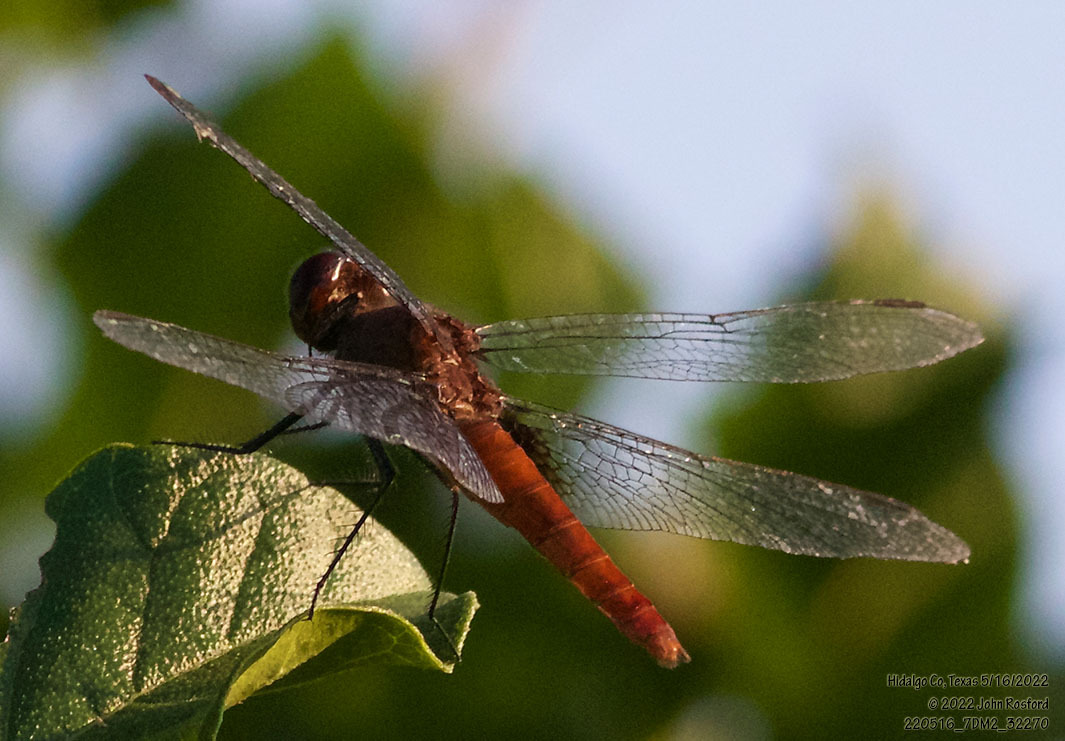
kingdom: Animalia
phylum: Arthropoda
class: Insecta
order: Odonata
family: Libellulidae
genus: Planiplax
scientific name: Planiplax sanguiniventris
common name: Mexican scarlet-tail
